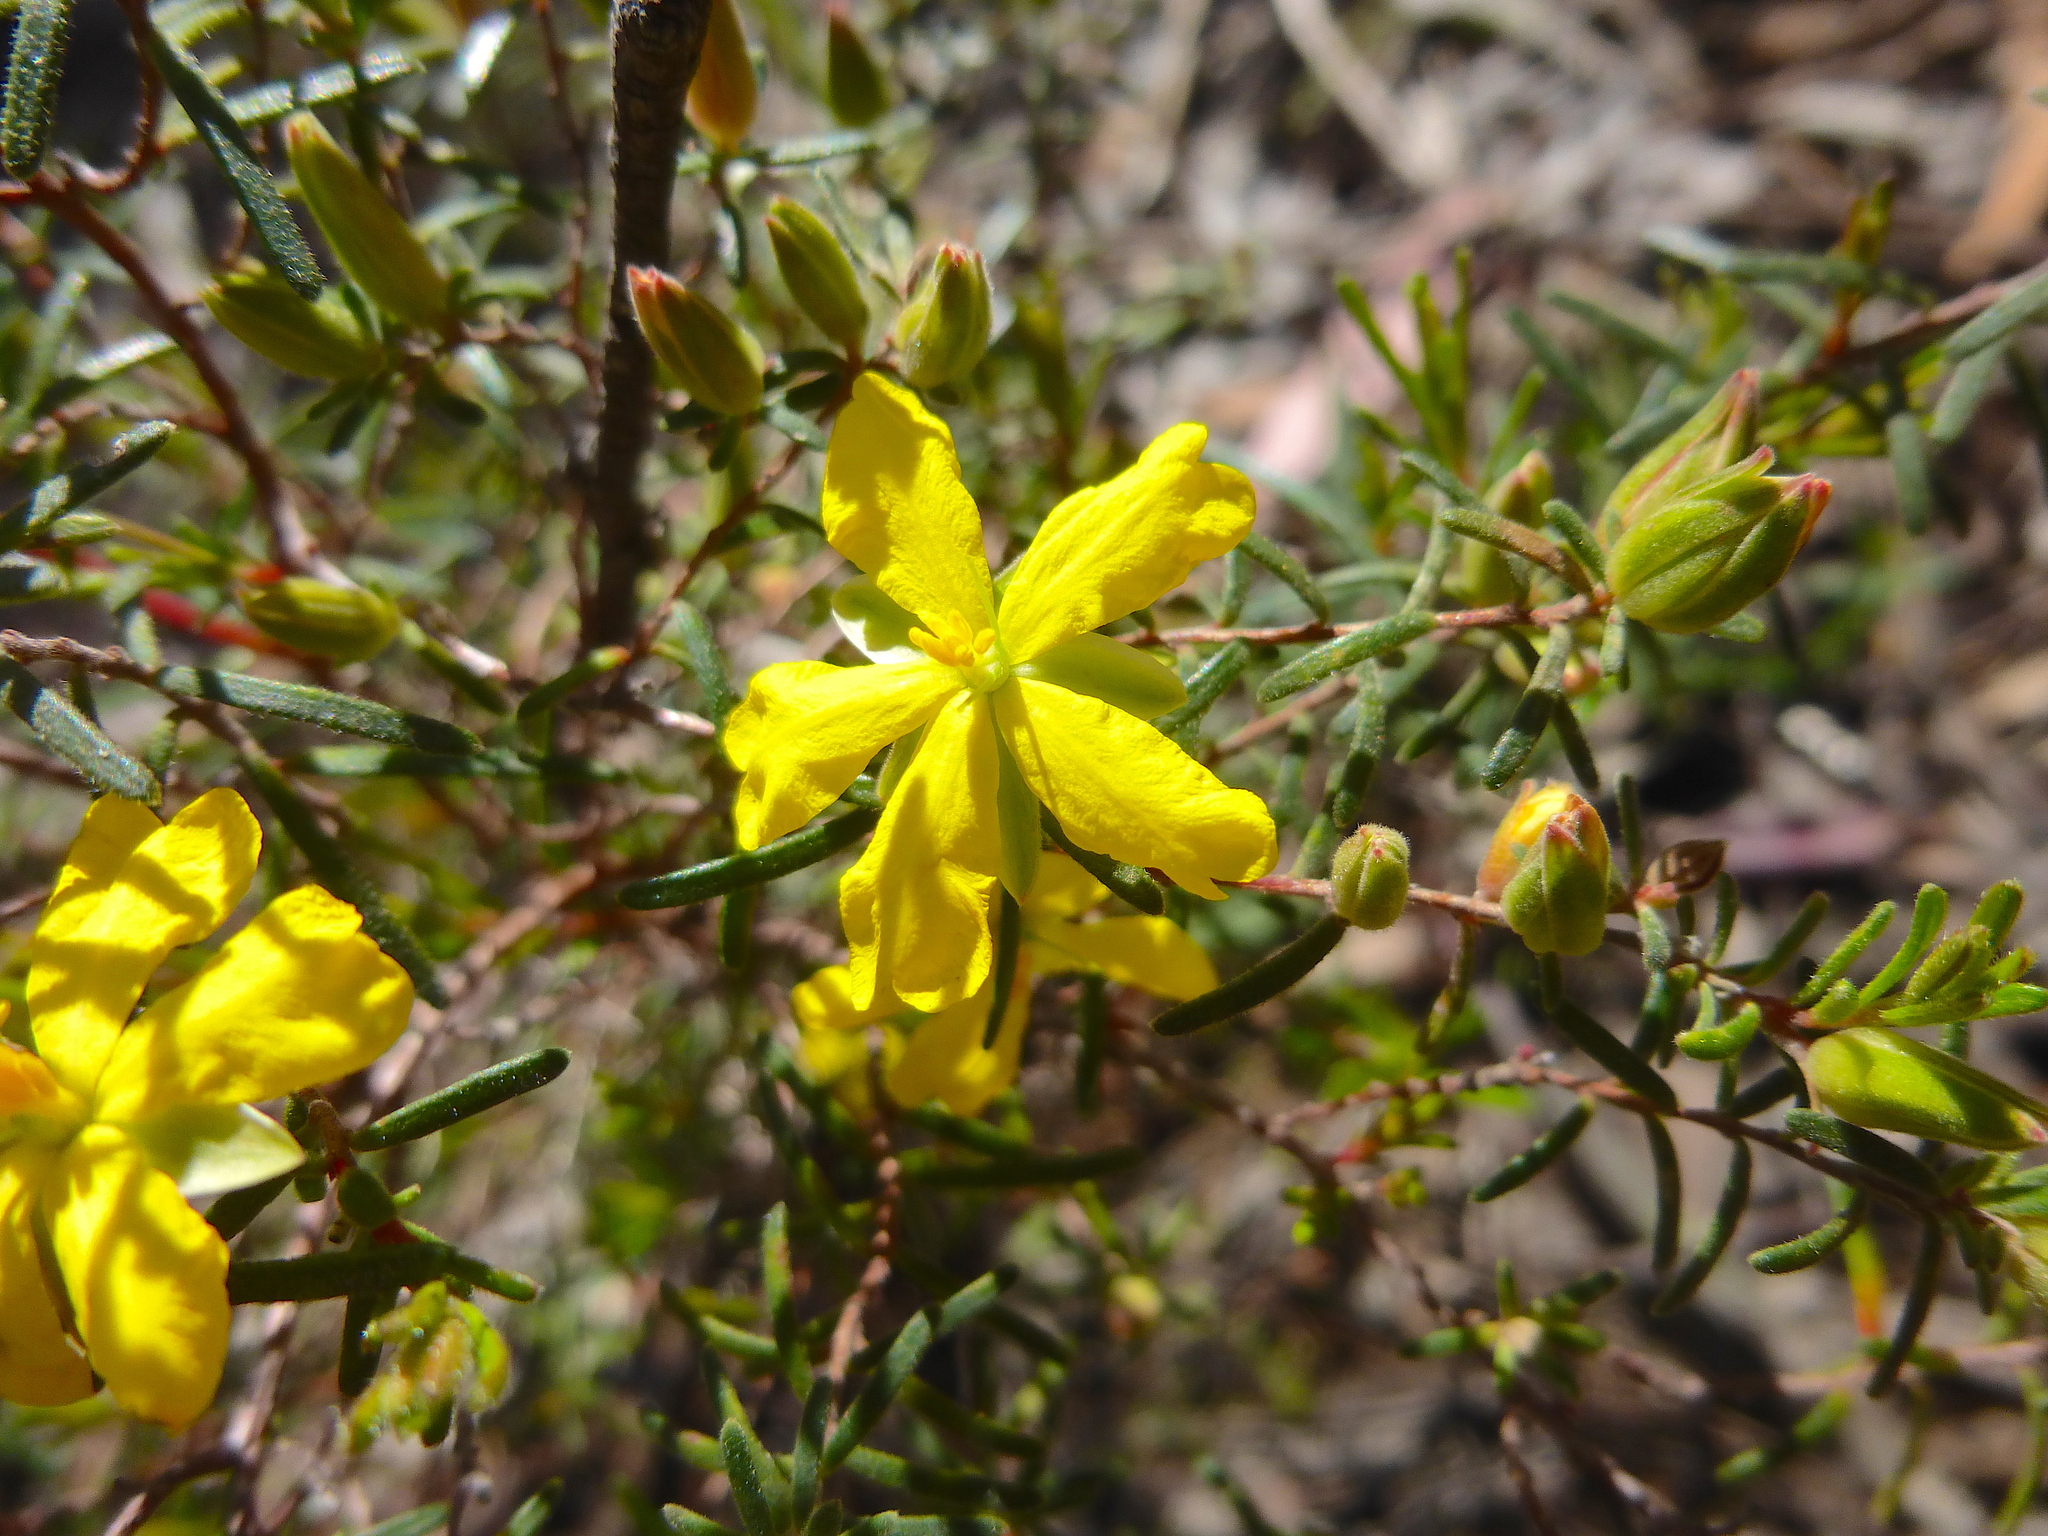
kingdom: Plantae
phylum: Tracheophyta
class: Magnoliopsida
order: Dilleniales
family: Dilleniaceae
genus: Hibbertia
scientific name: Hibbertia riparia
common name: Erect guinea-flower
